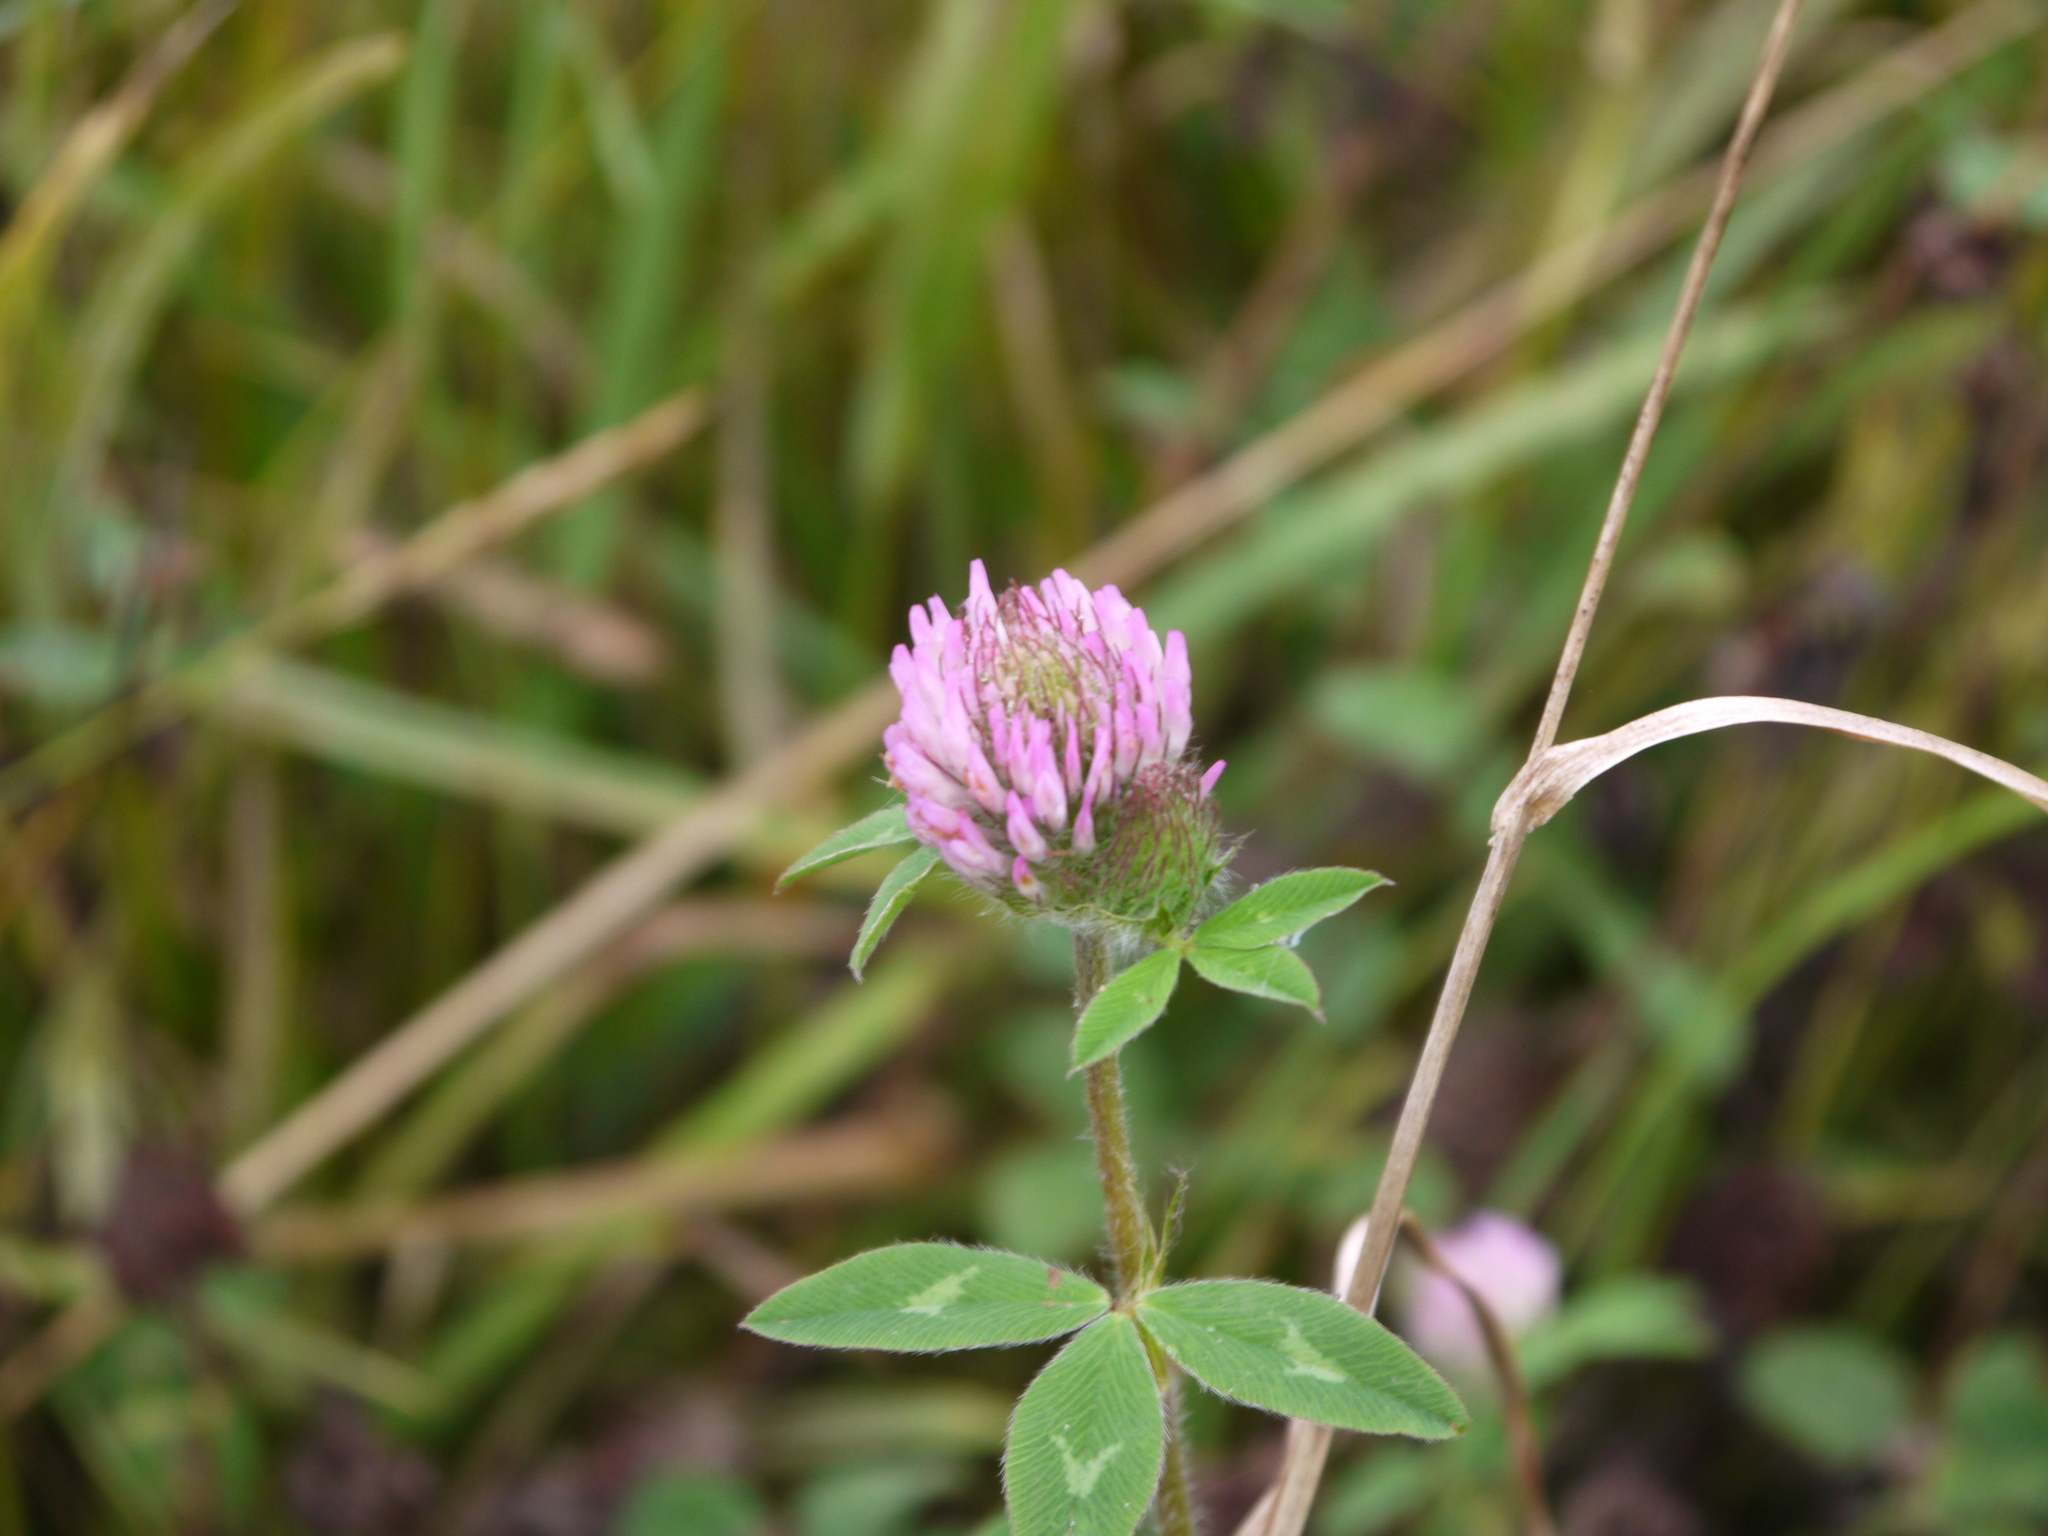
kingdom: Plantae
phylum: Tracheophyta
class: Magnoliopsida
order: Fabales
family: Fabaceae
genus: Trifolium
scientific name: Trifolium pratense
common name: Red clover
